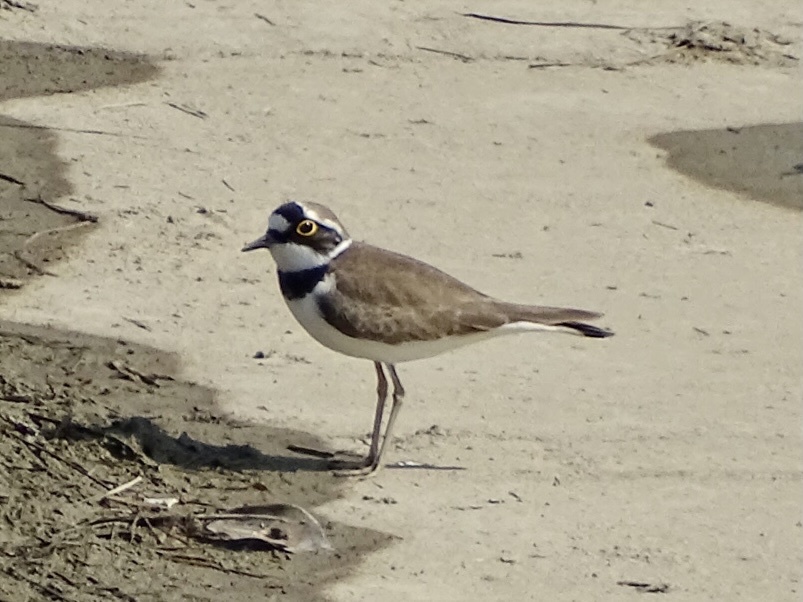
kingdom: Animalia
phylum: Chordata
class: Aves
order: Charadriiformes
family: Charadriidae
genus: Charadrius
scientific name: Charadrius dubius
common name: Little ringed plover
